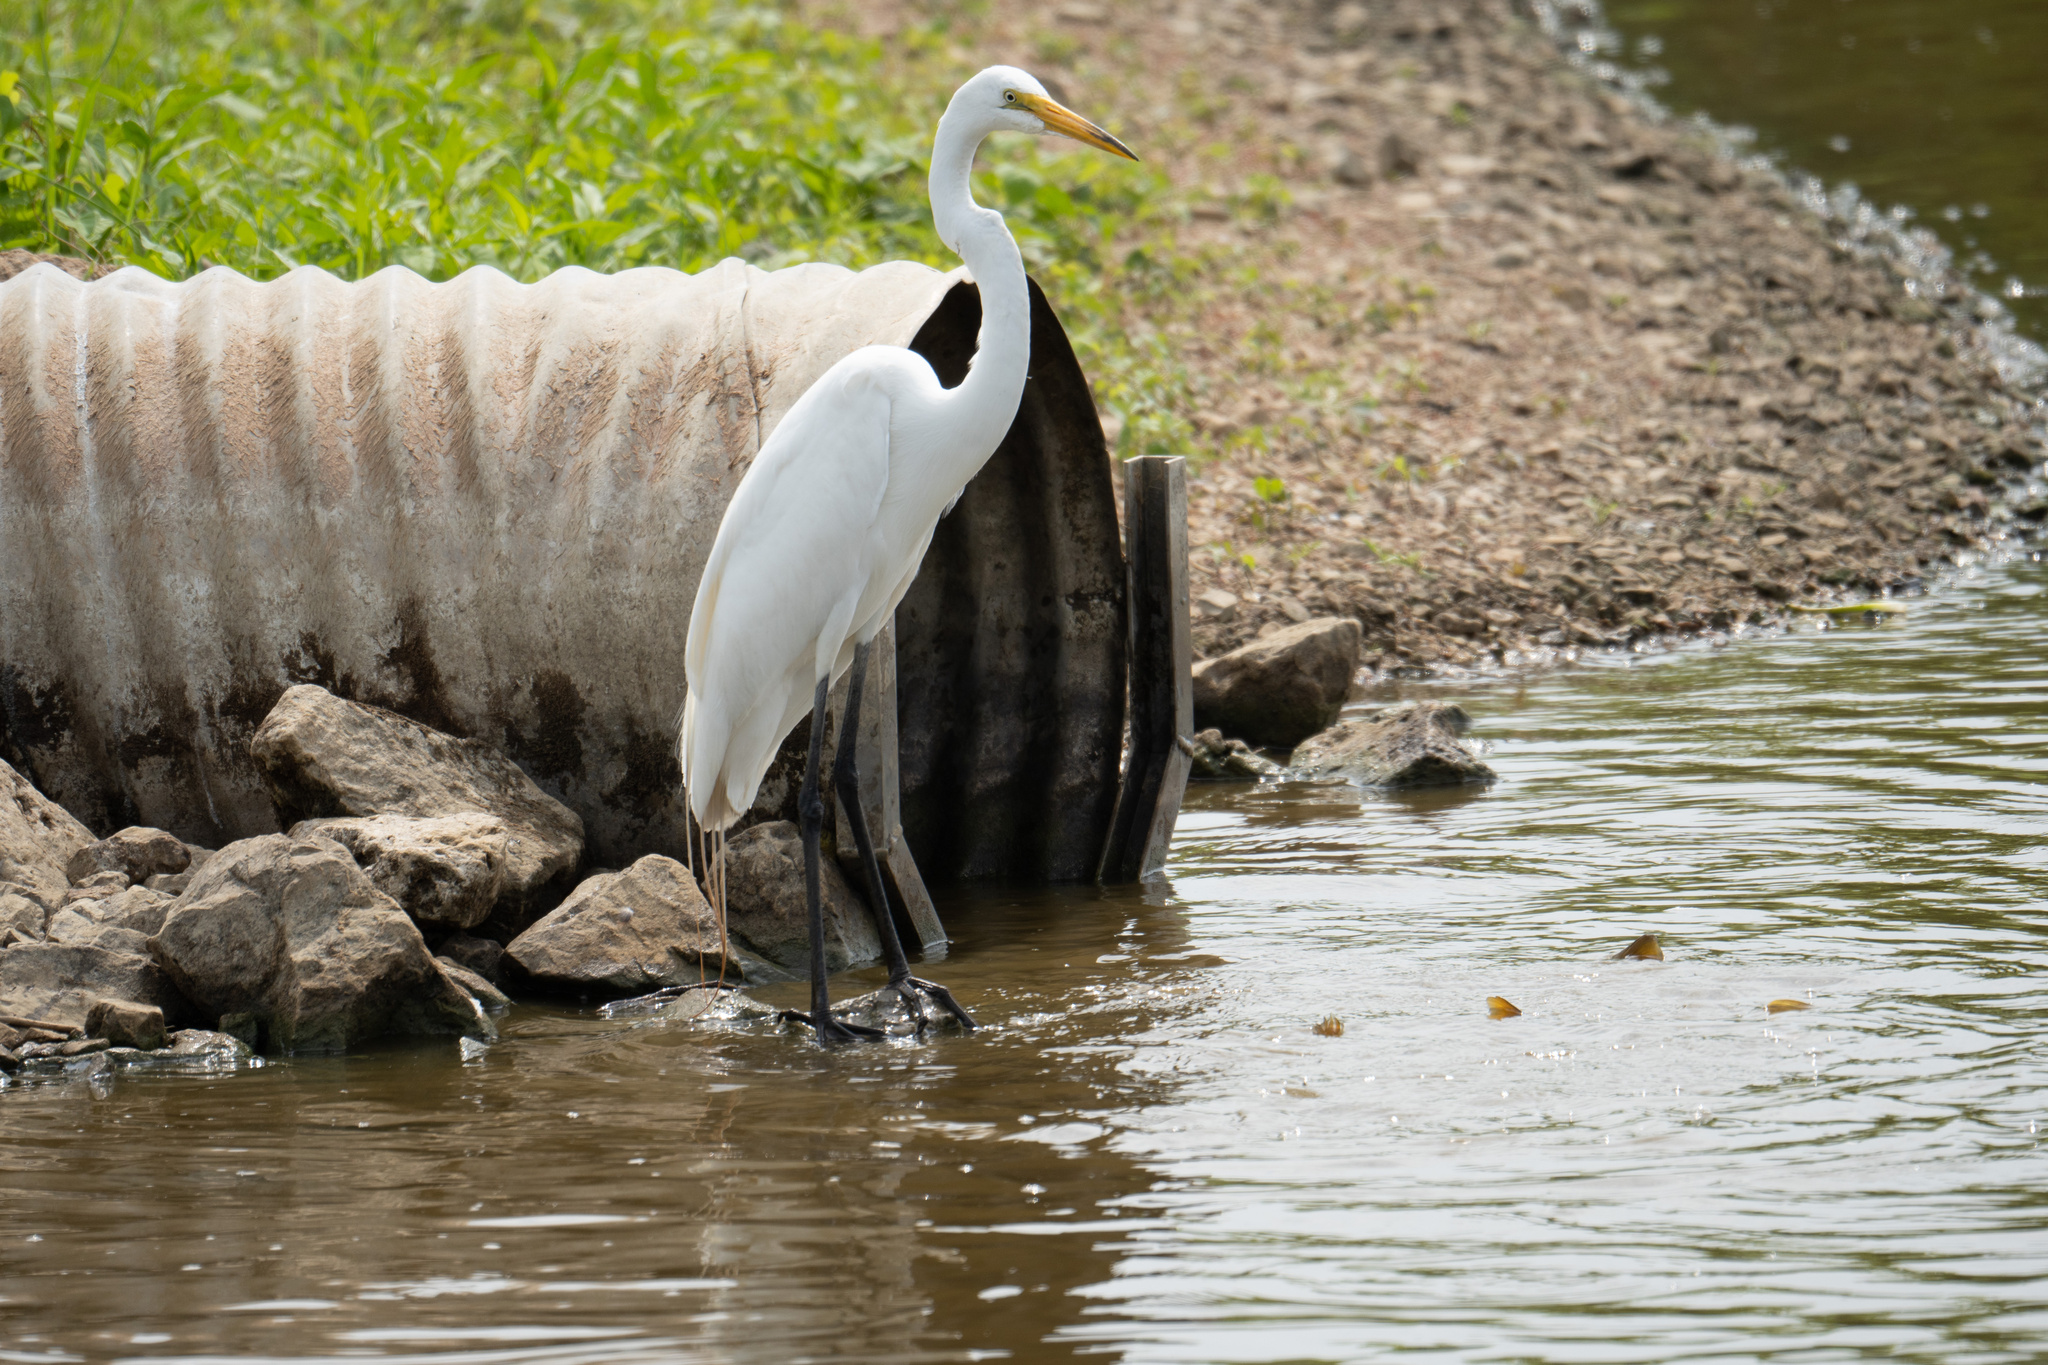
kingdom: Animalia
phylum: Chordata
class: Aves
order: Pelecaniformes
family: Ardeidae
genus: Ardea
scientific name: Ardea alba
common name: Great egret
